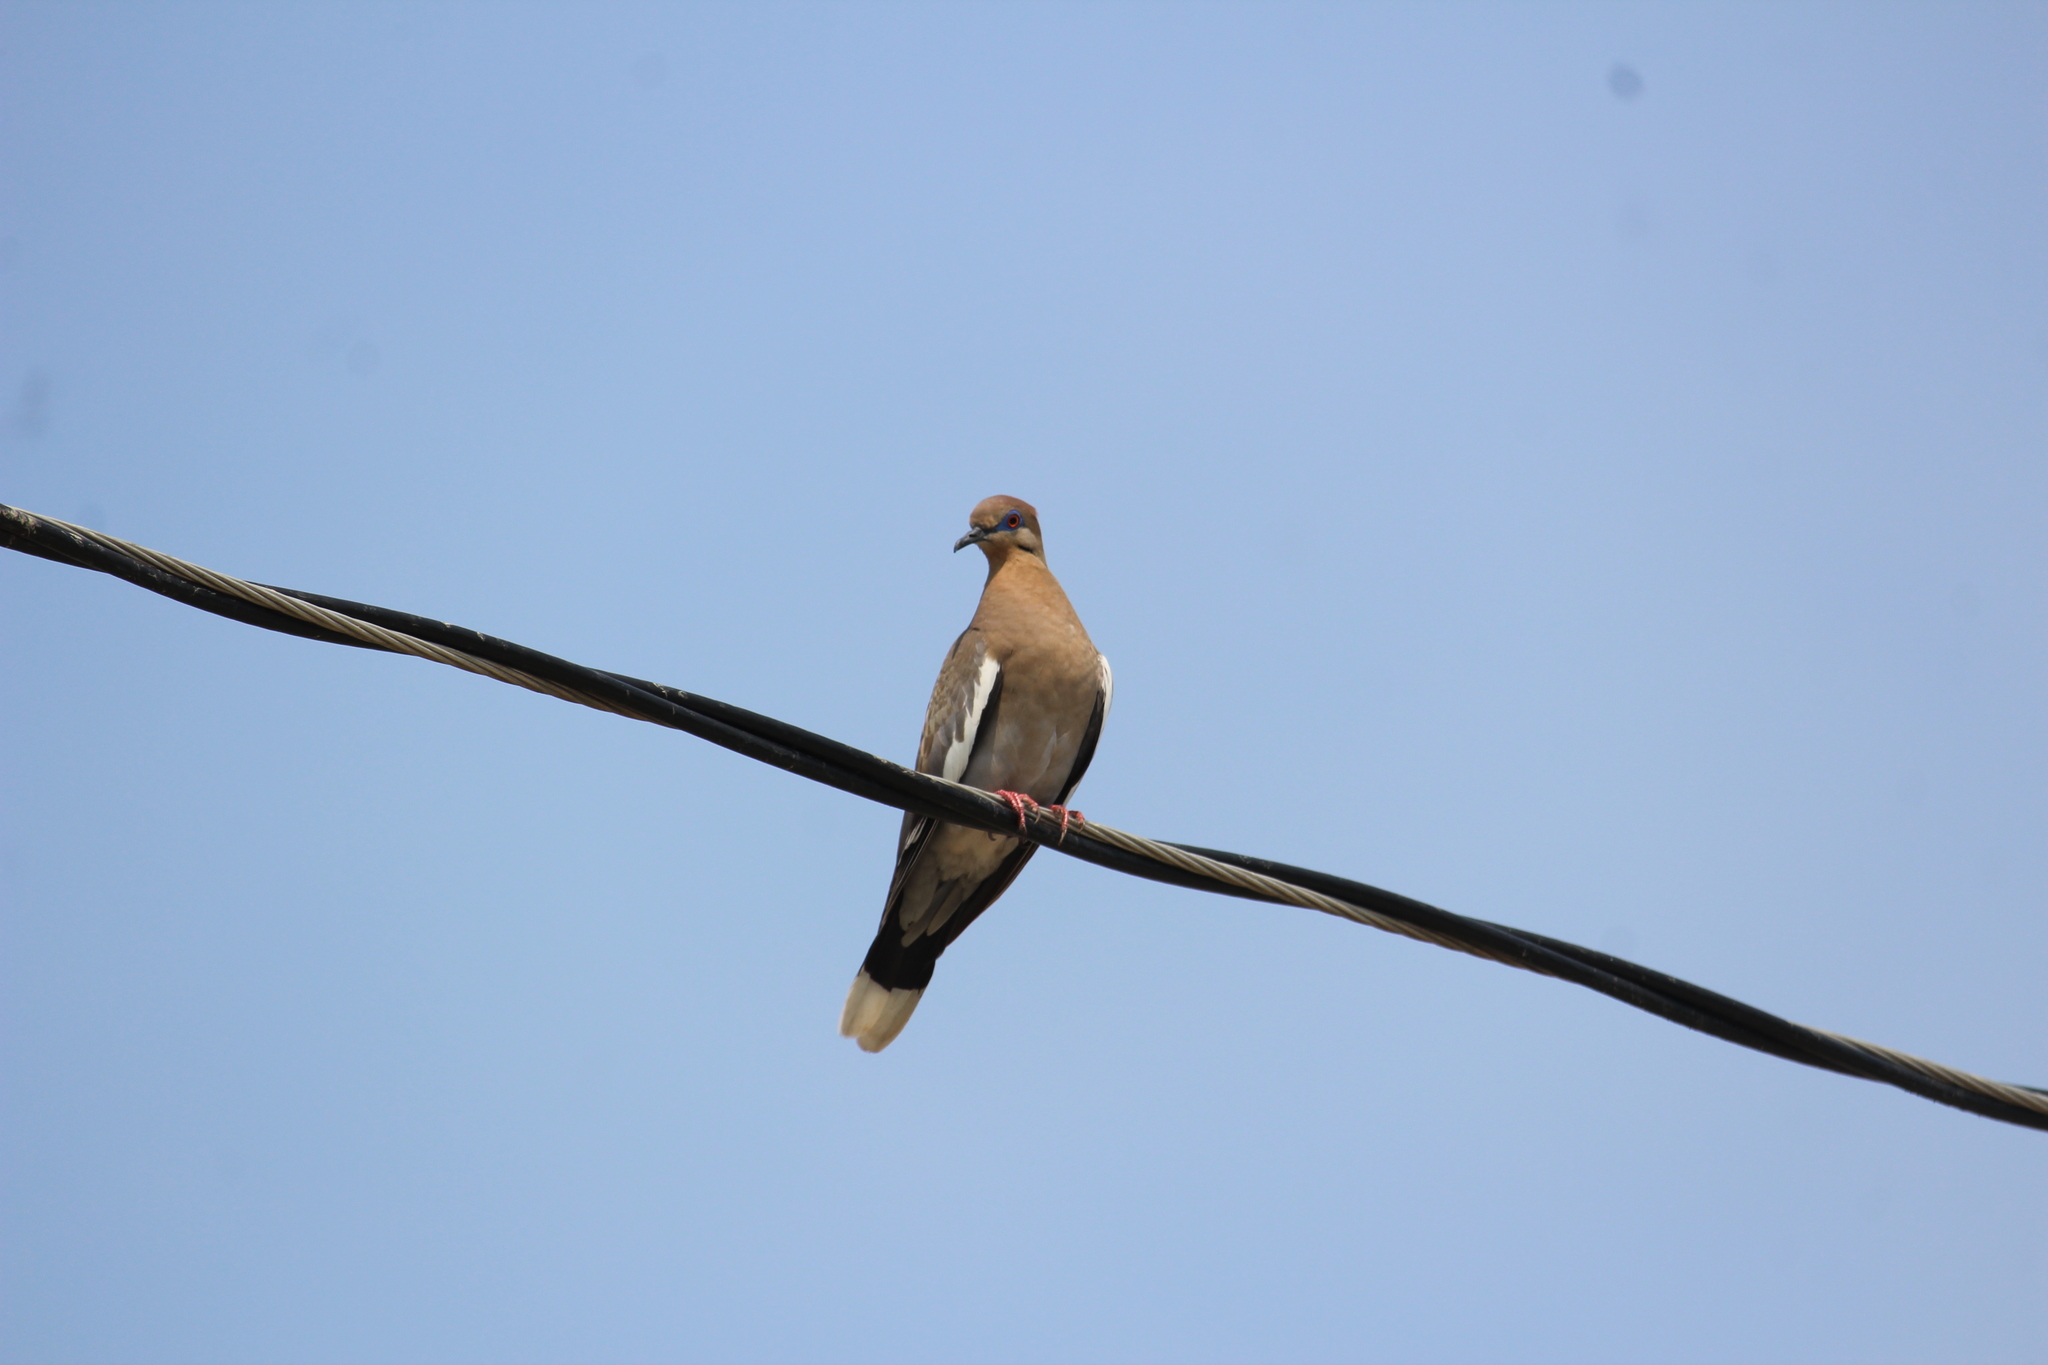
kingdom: Animalia
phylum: Chordata
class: Aves
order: Columbiformes
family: Columbidae
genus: Zenaida
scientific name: Zenaida asiatica
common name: White-winged dove
